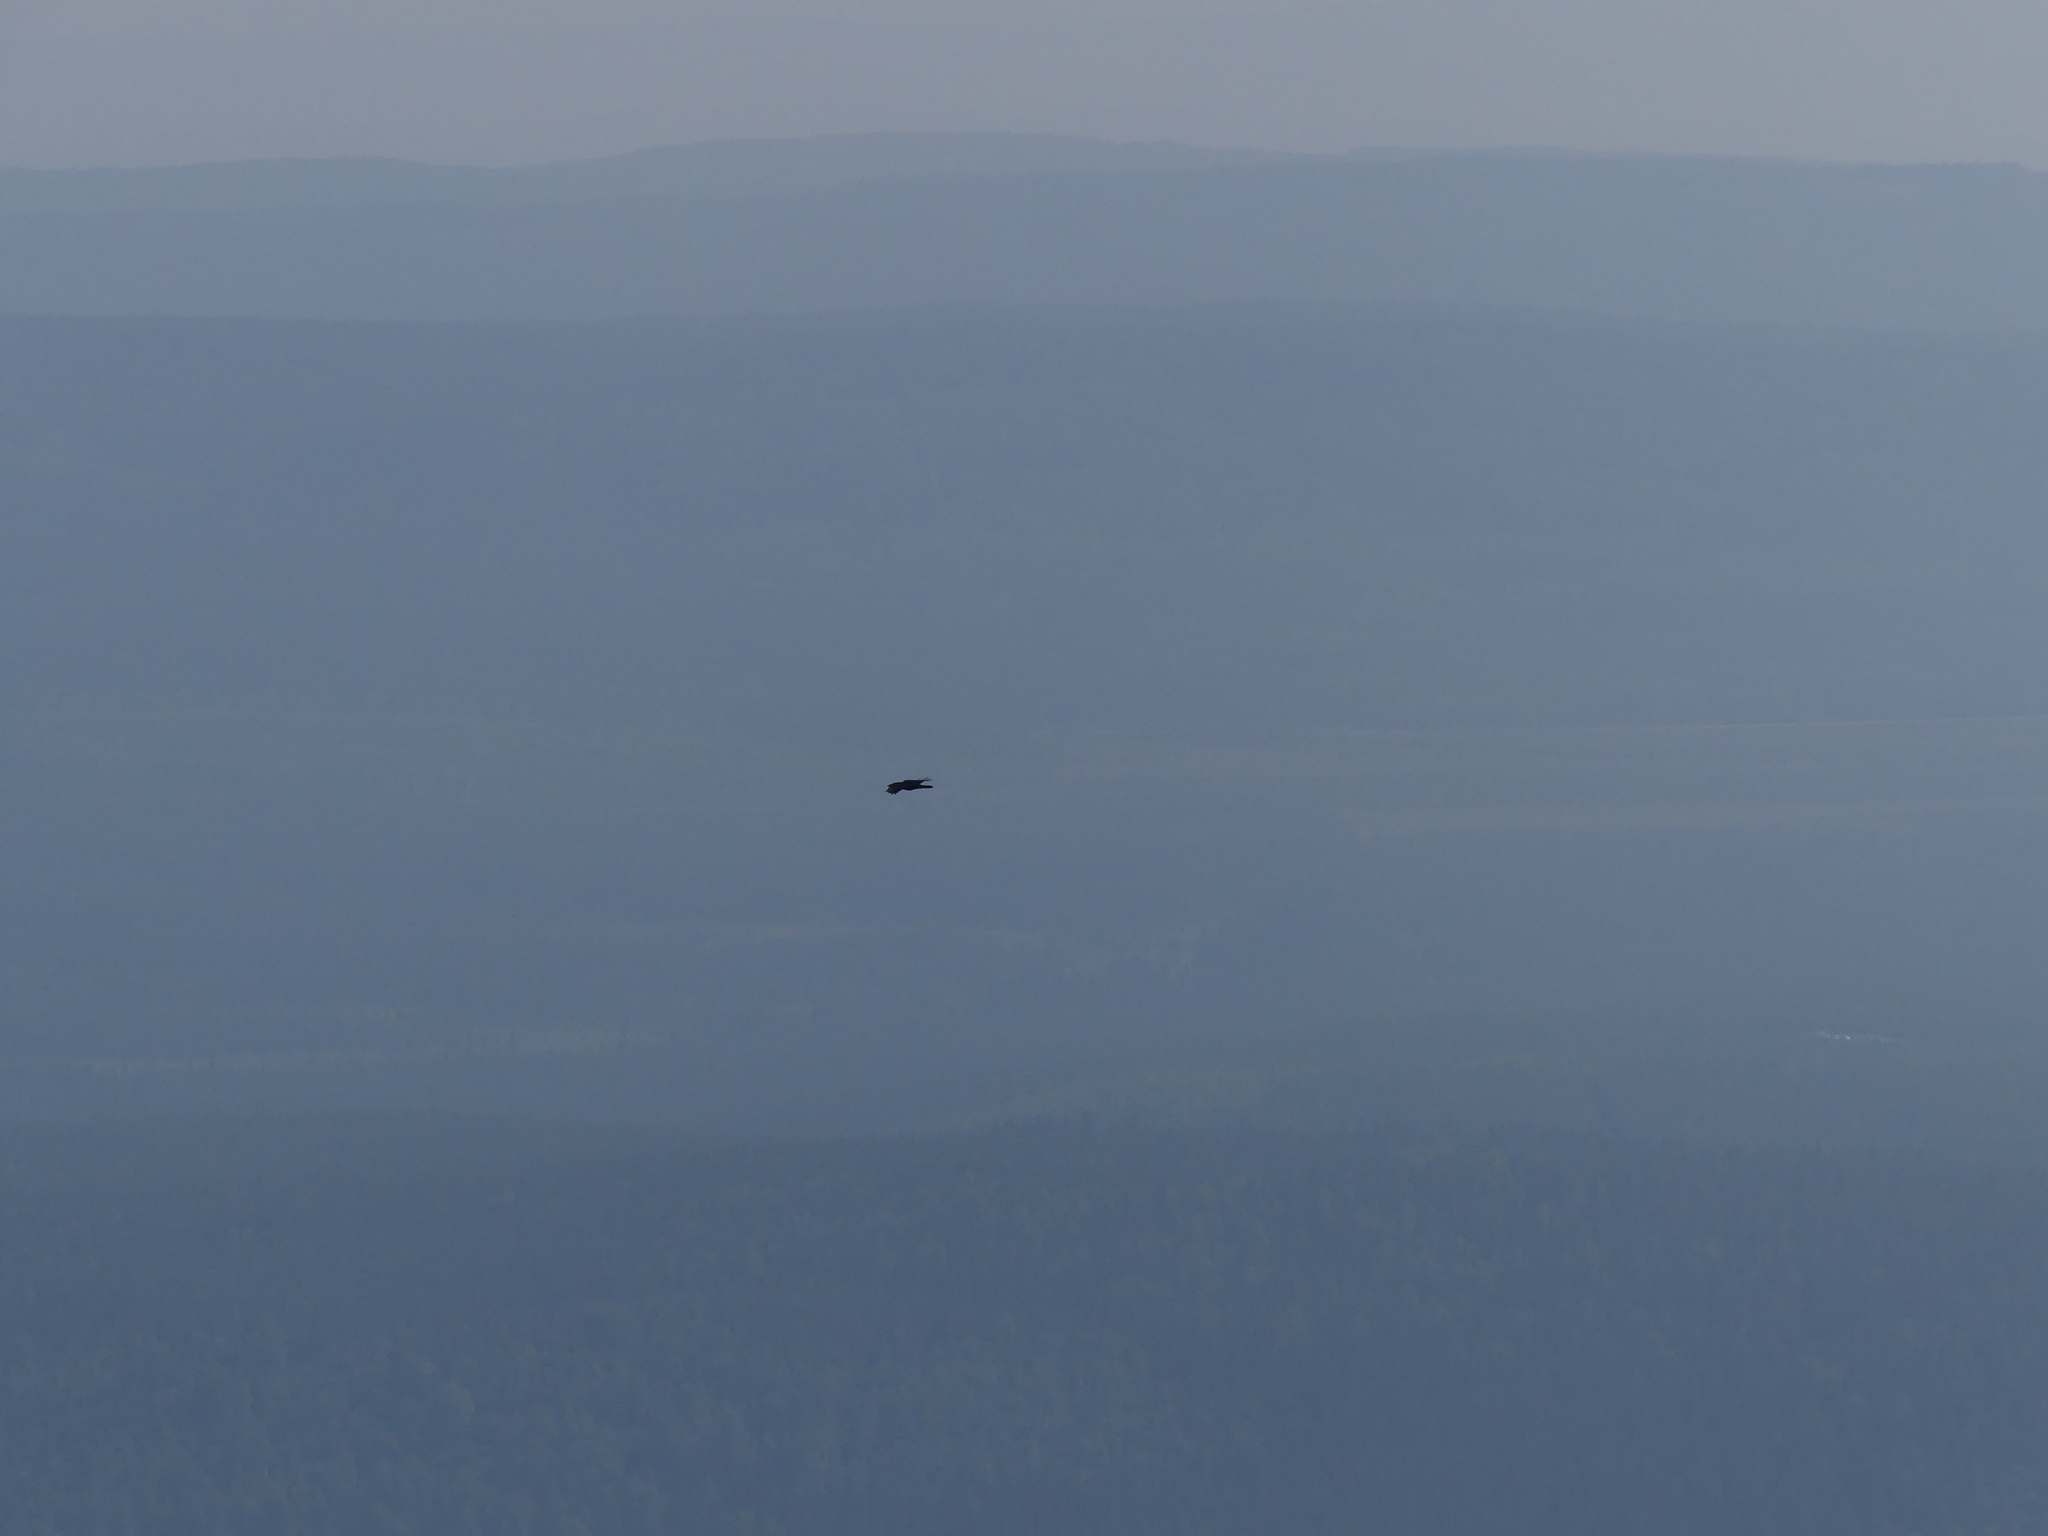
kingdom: Animalia
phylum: Chordata
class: Aves
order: Passeriformes
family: Corvidae
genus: Corvus
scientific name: Corvus corax
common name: Common raven
